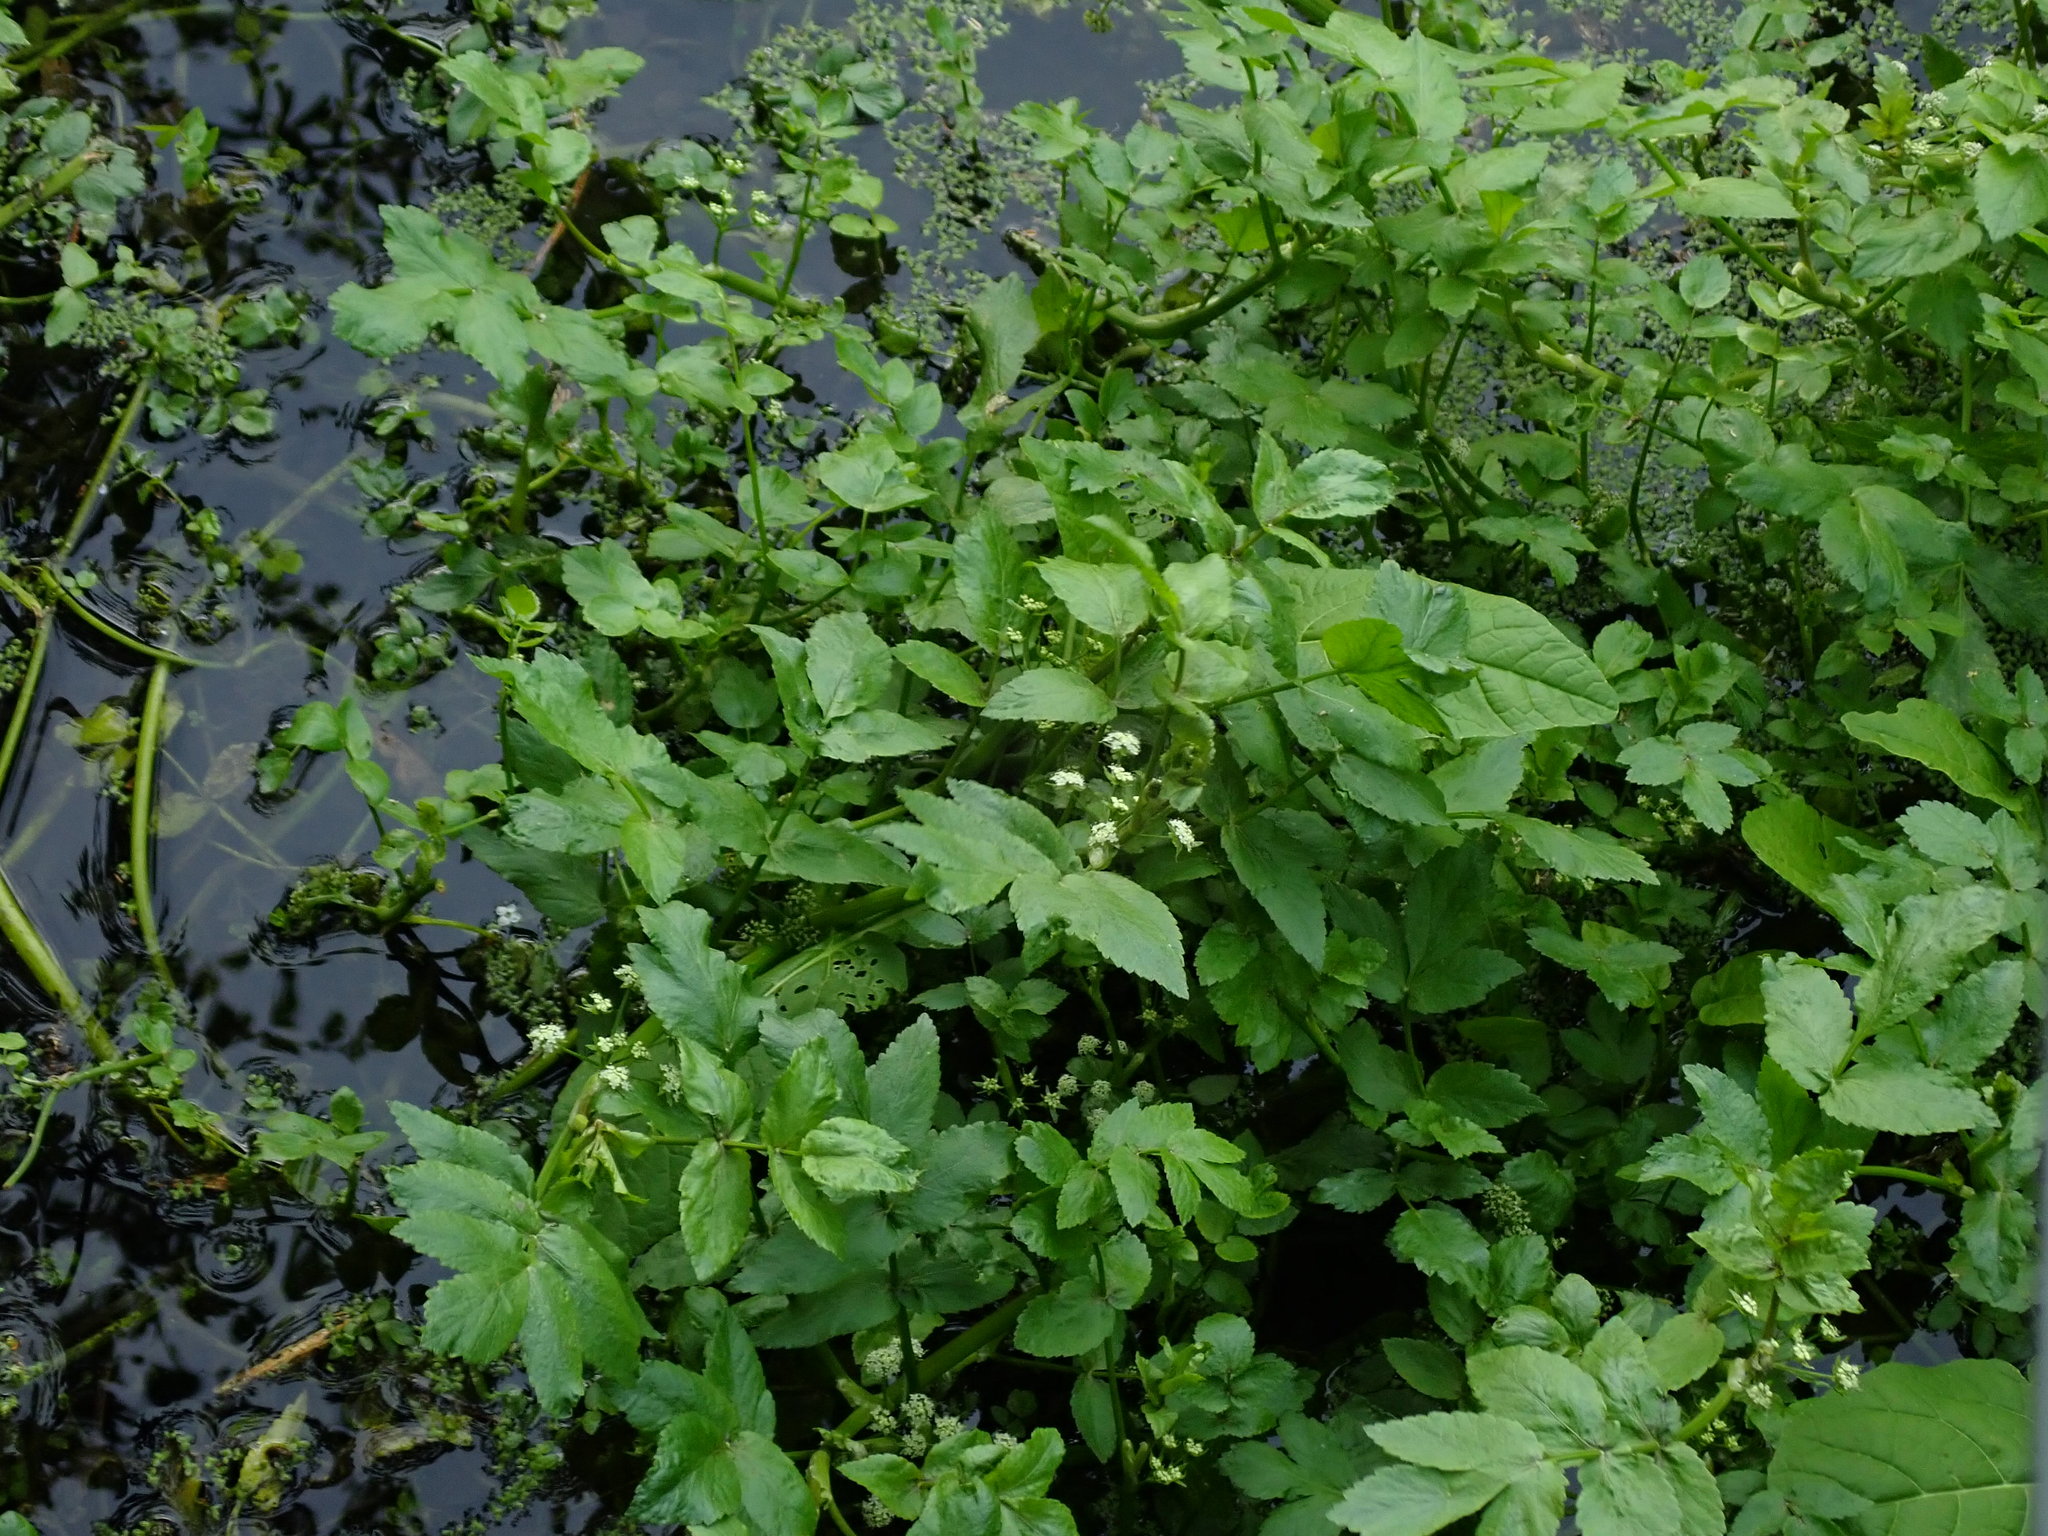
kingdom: Plantae
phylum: Tracheophyta
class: Magnoliopsida
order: Apiales
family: Apiaceae
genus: Helosciadium
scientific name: Helosciadium nodiflorum
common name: Fool's-watercress
